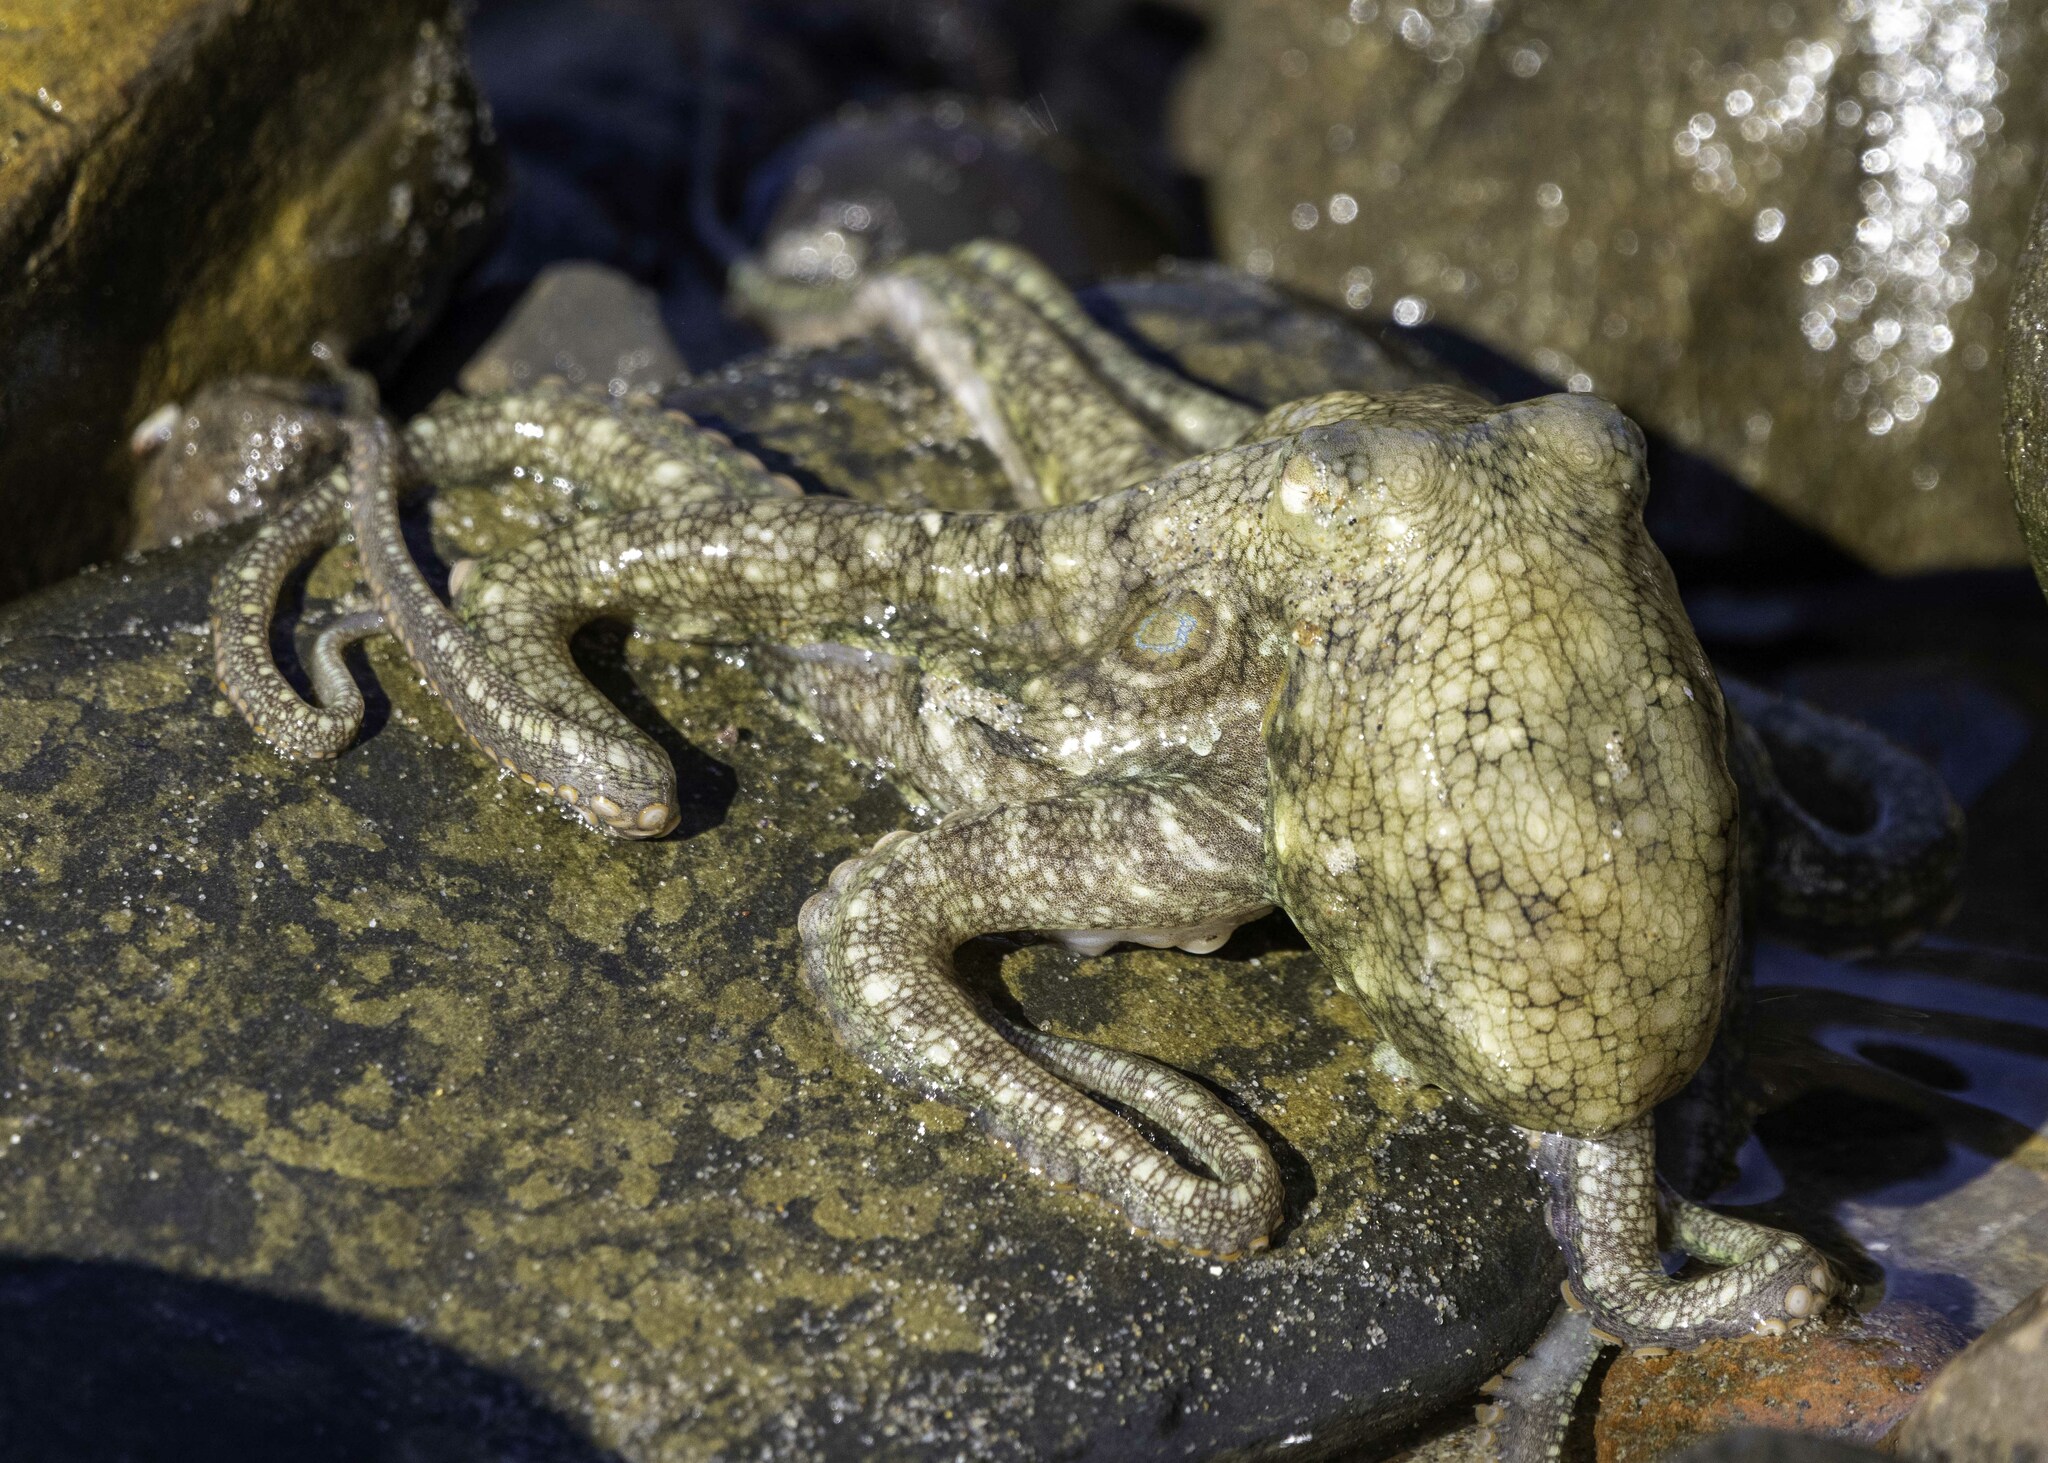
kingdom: Animalia
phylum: Mollusca
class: Cephalopoda
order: Octopoda
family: Octopodidae
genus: Octopus
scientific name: Octopus bimaculoides
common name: California two-spot octopus
